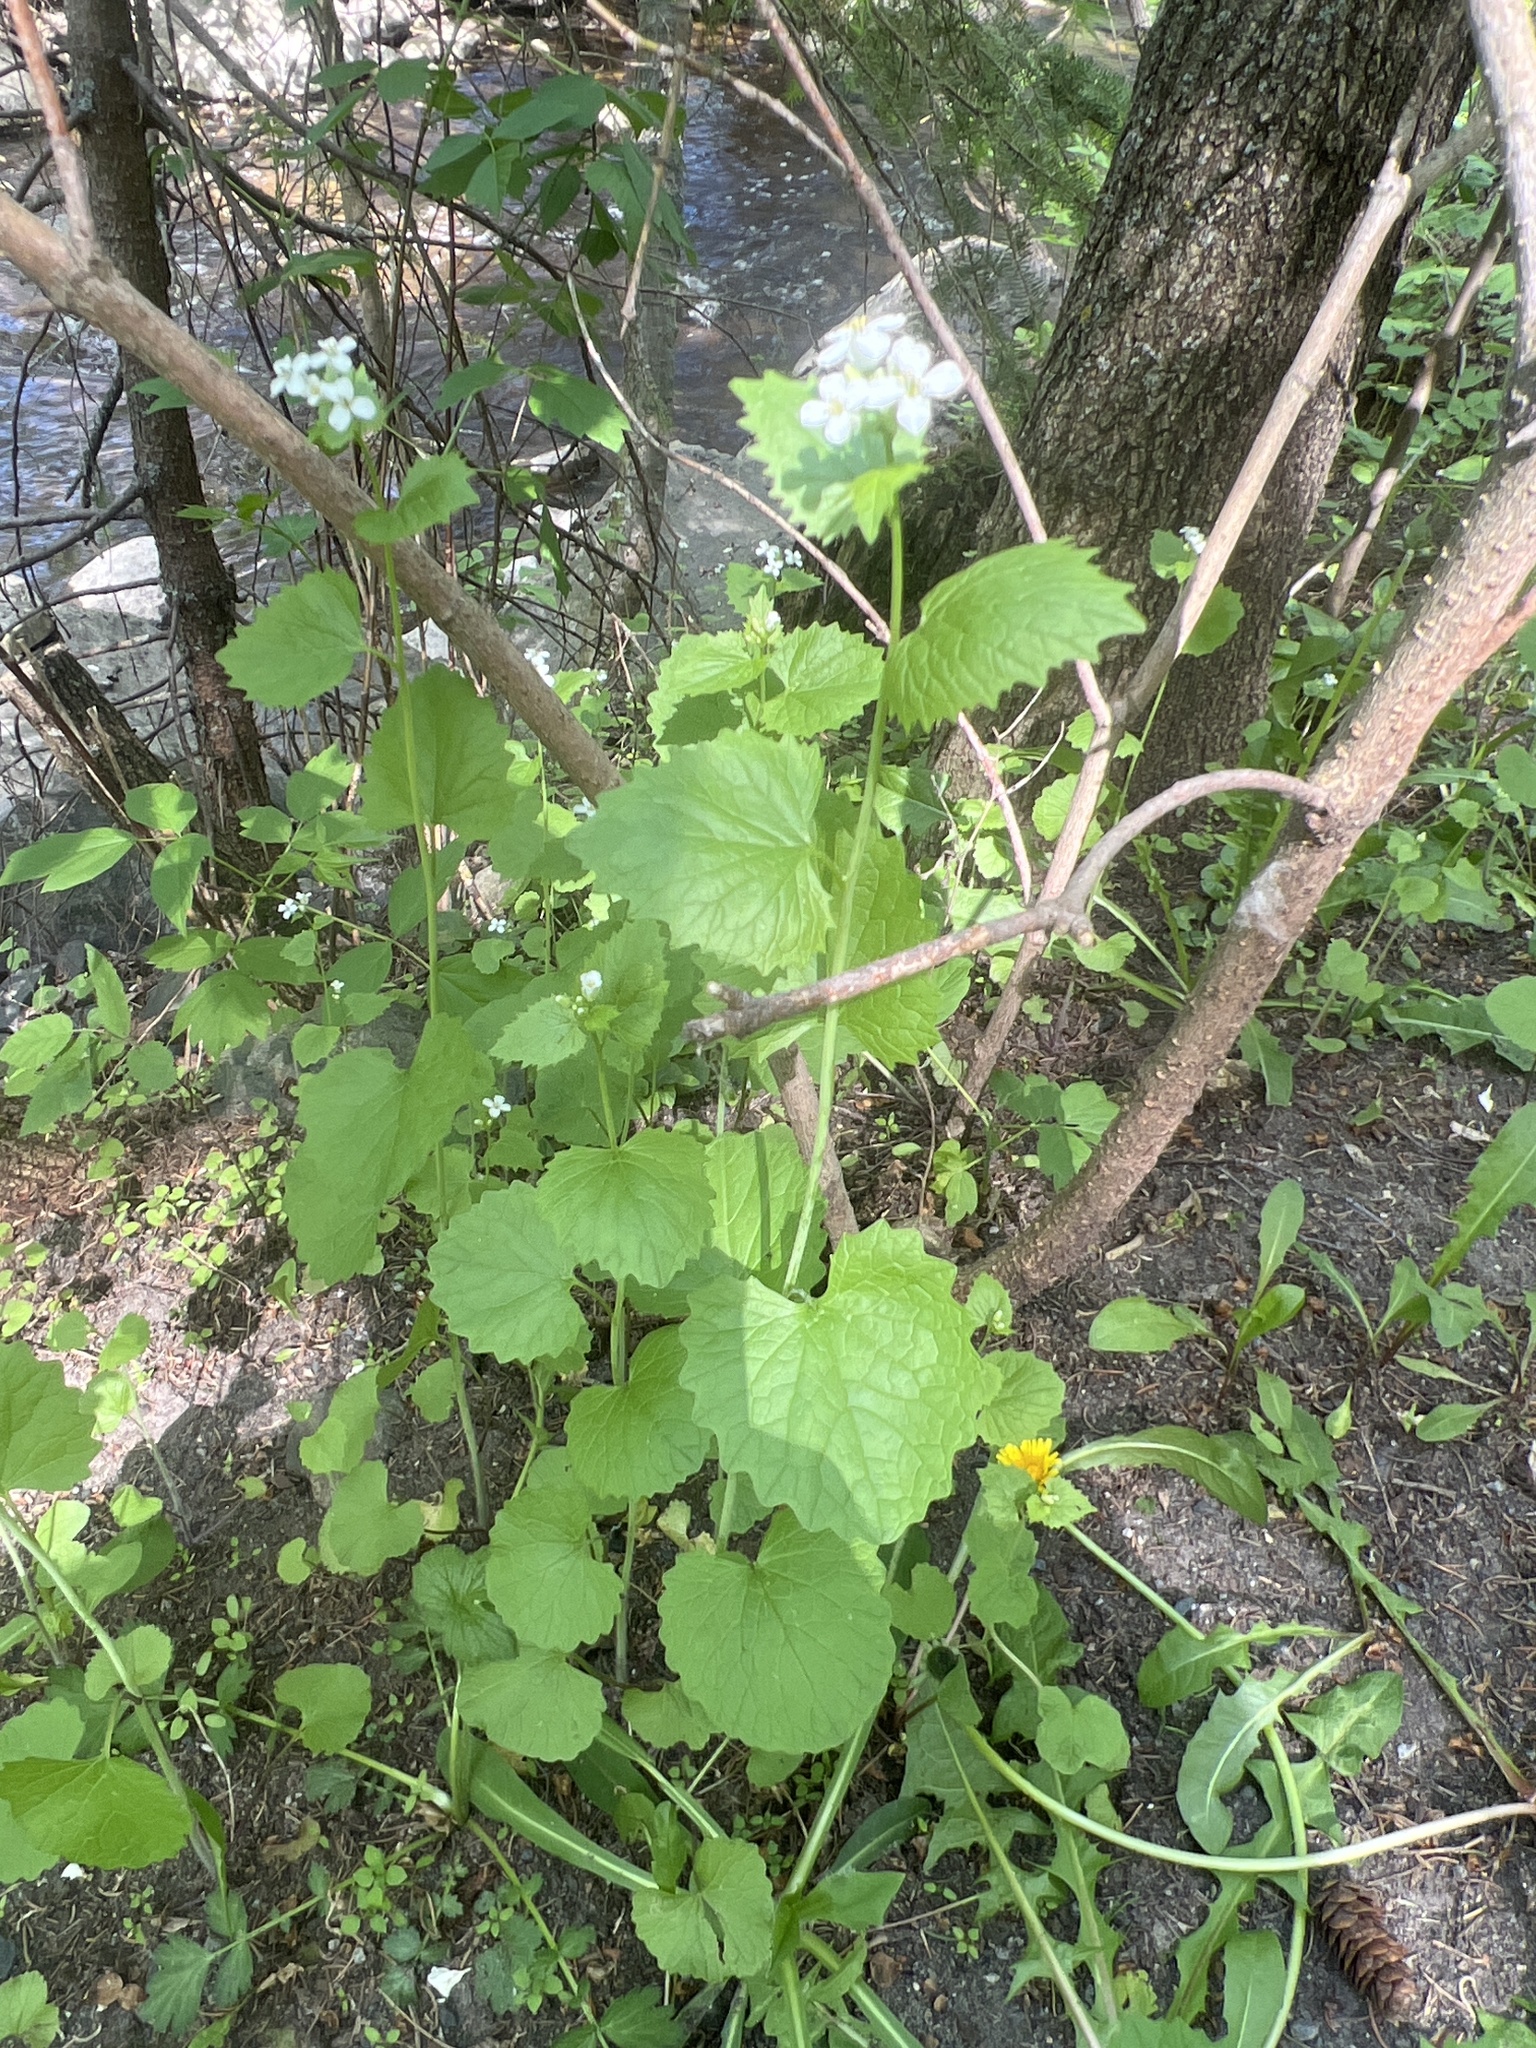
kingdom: Plantae
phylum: Tracheophyta
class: Magnoliopsida
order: Brassicales
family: Brassicaceae
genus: Alliaria
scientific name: Alliaria petiolata
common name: Garlic mustard
